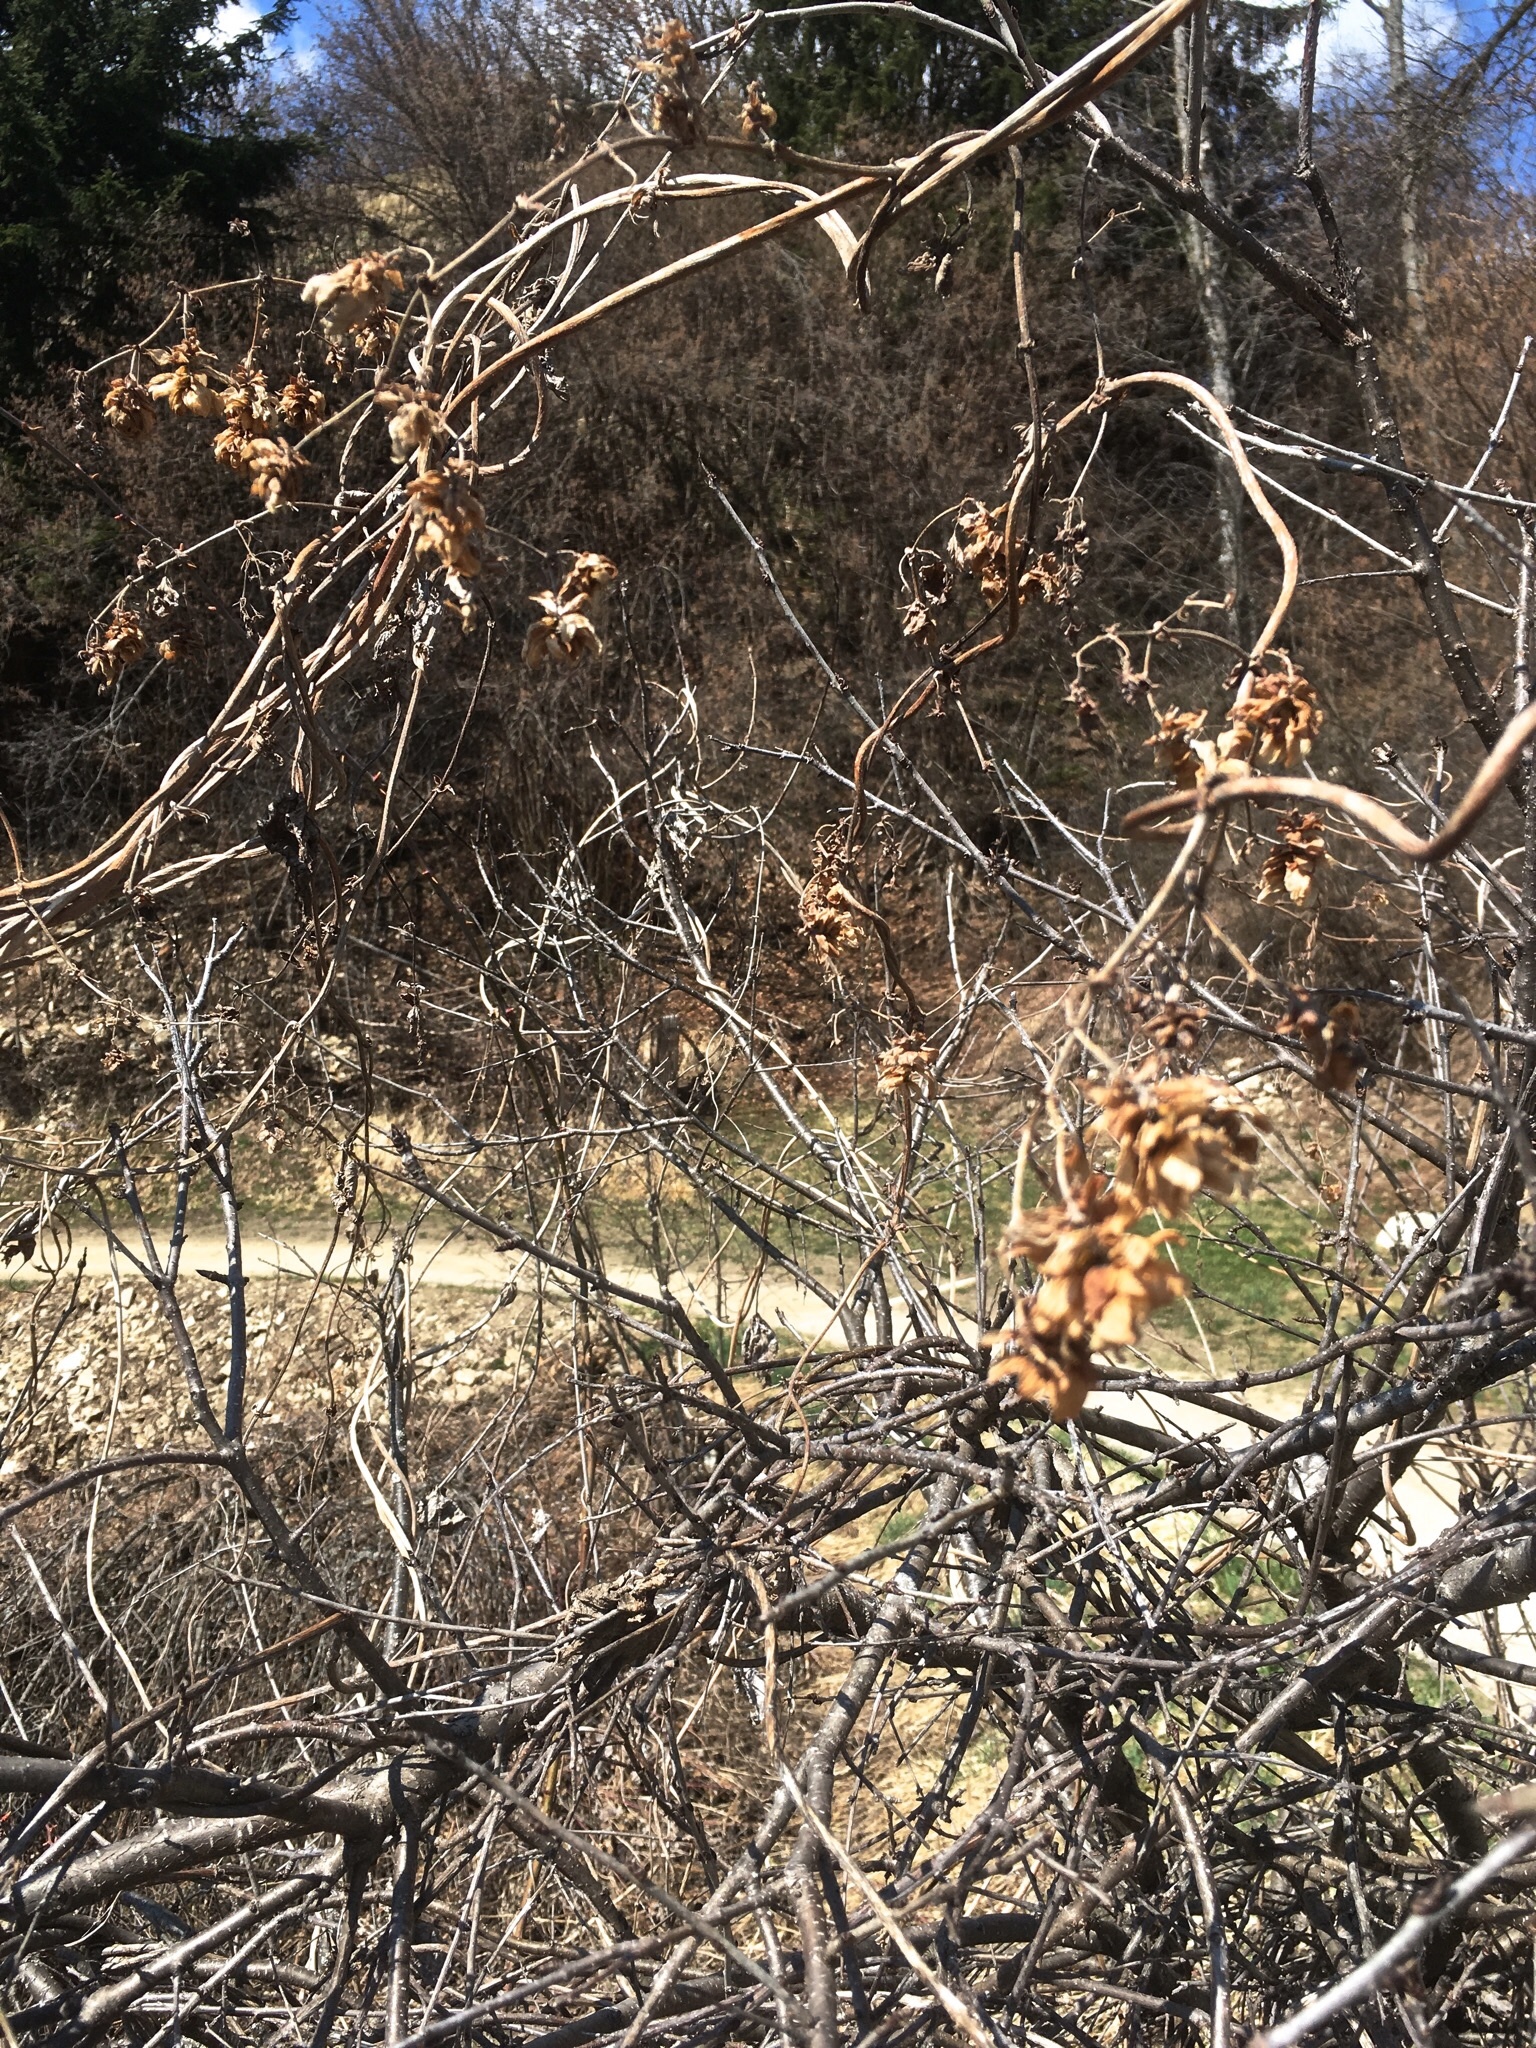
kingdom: Plantae
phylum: Tracheophyta
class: Magnoliopsida
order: Rosales
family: Cannabaceae
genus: Humulus
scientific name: Humulus lupulus
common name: Hop
